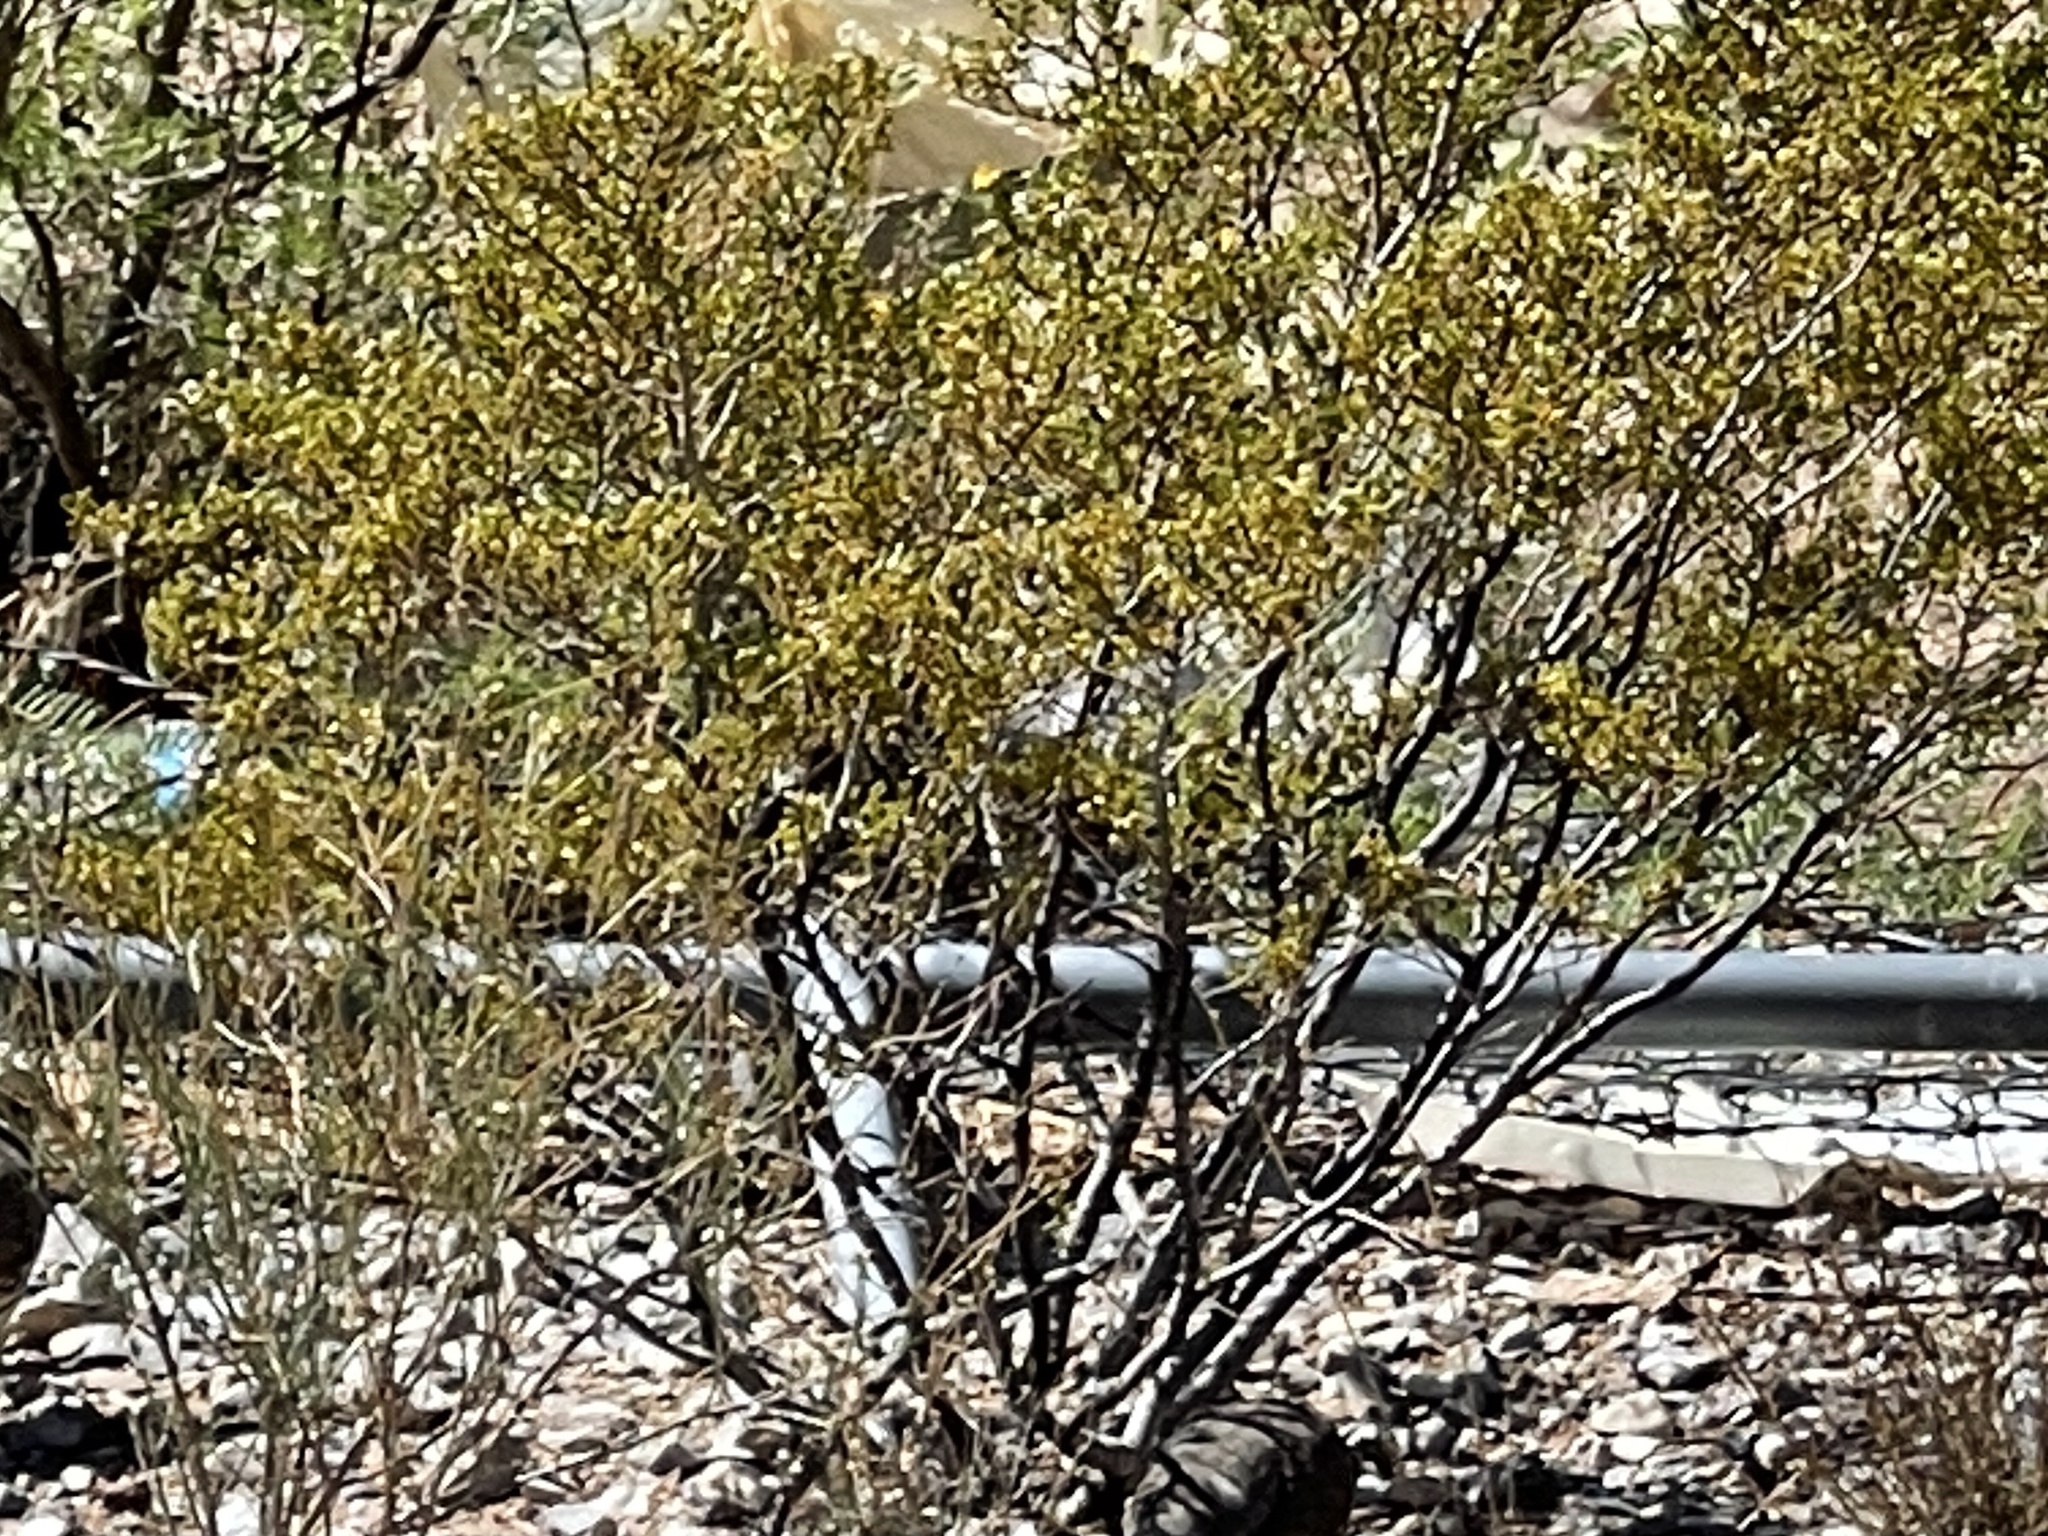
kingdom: Plantae
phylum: Tracheophyta
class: Magnoliopsida
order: Zygophyllales
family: Zygophyllaceae
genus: Larrea
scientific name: Larrea tridentata
